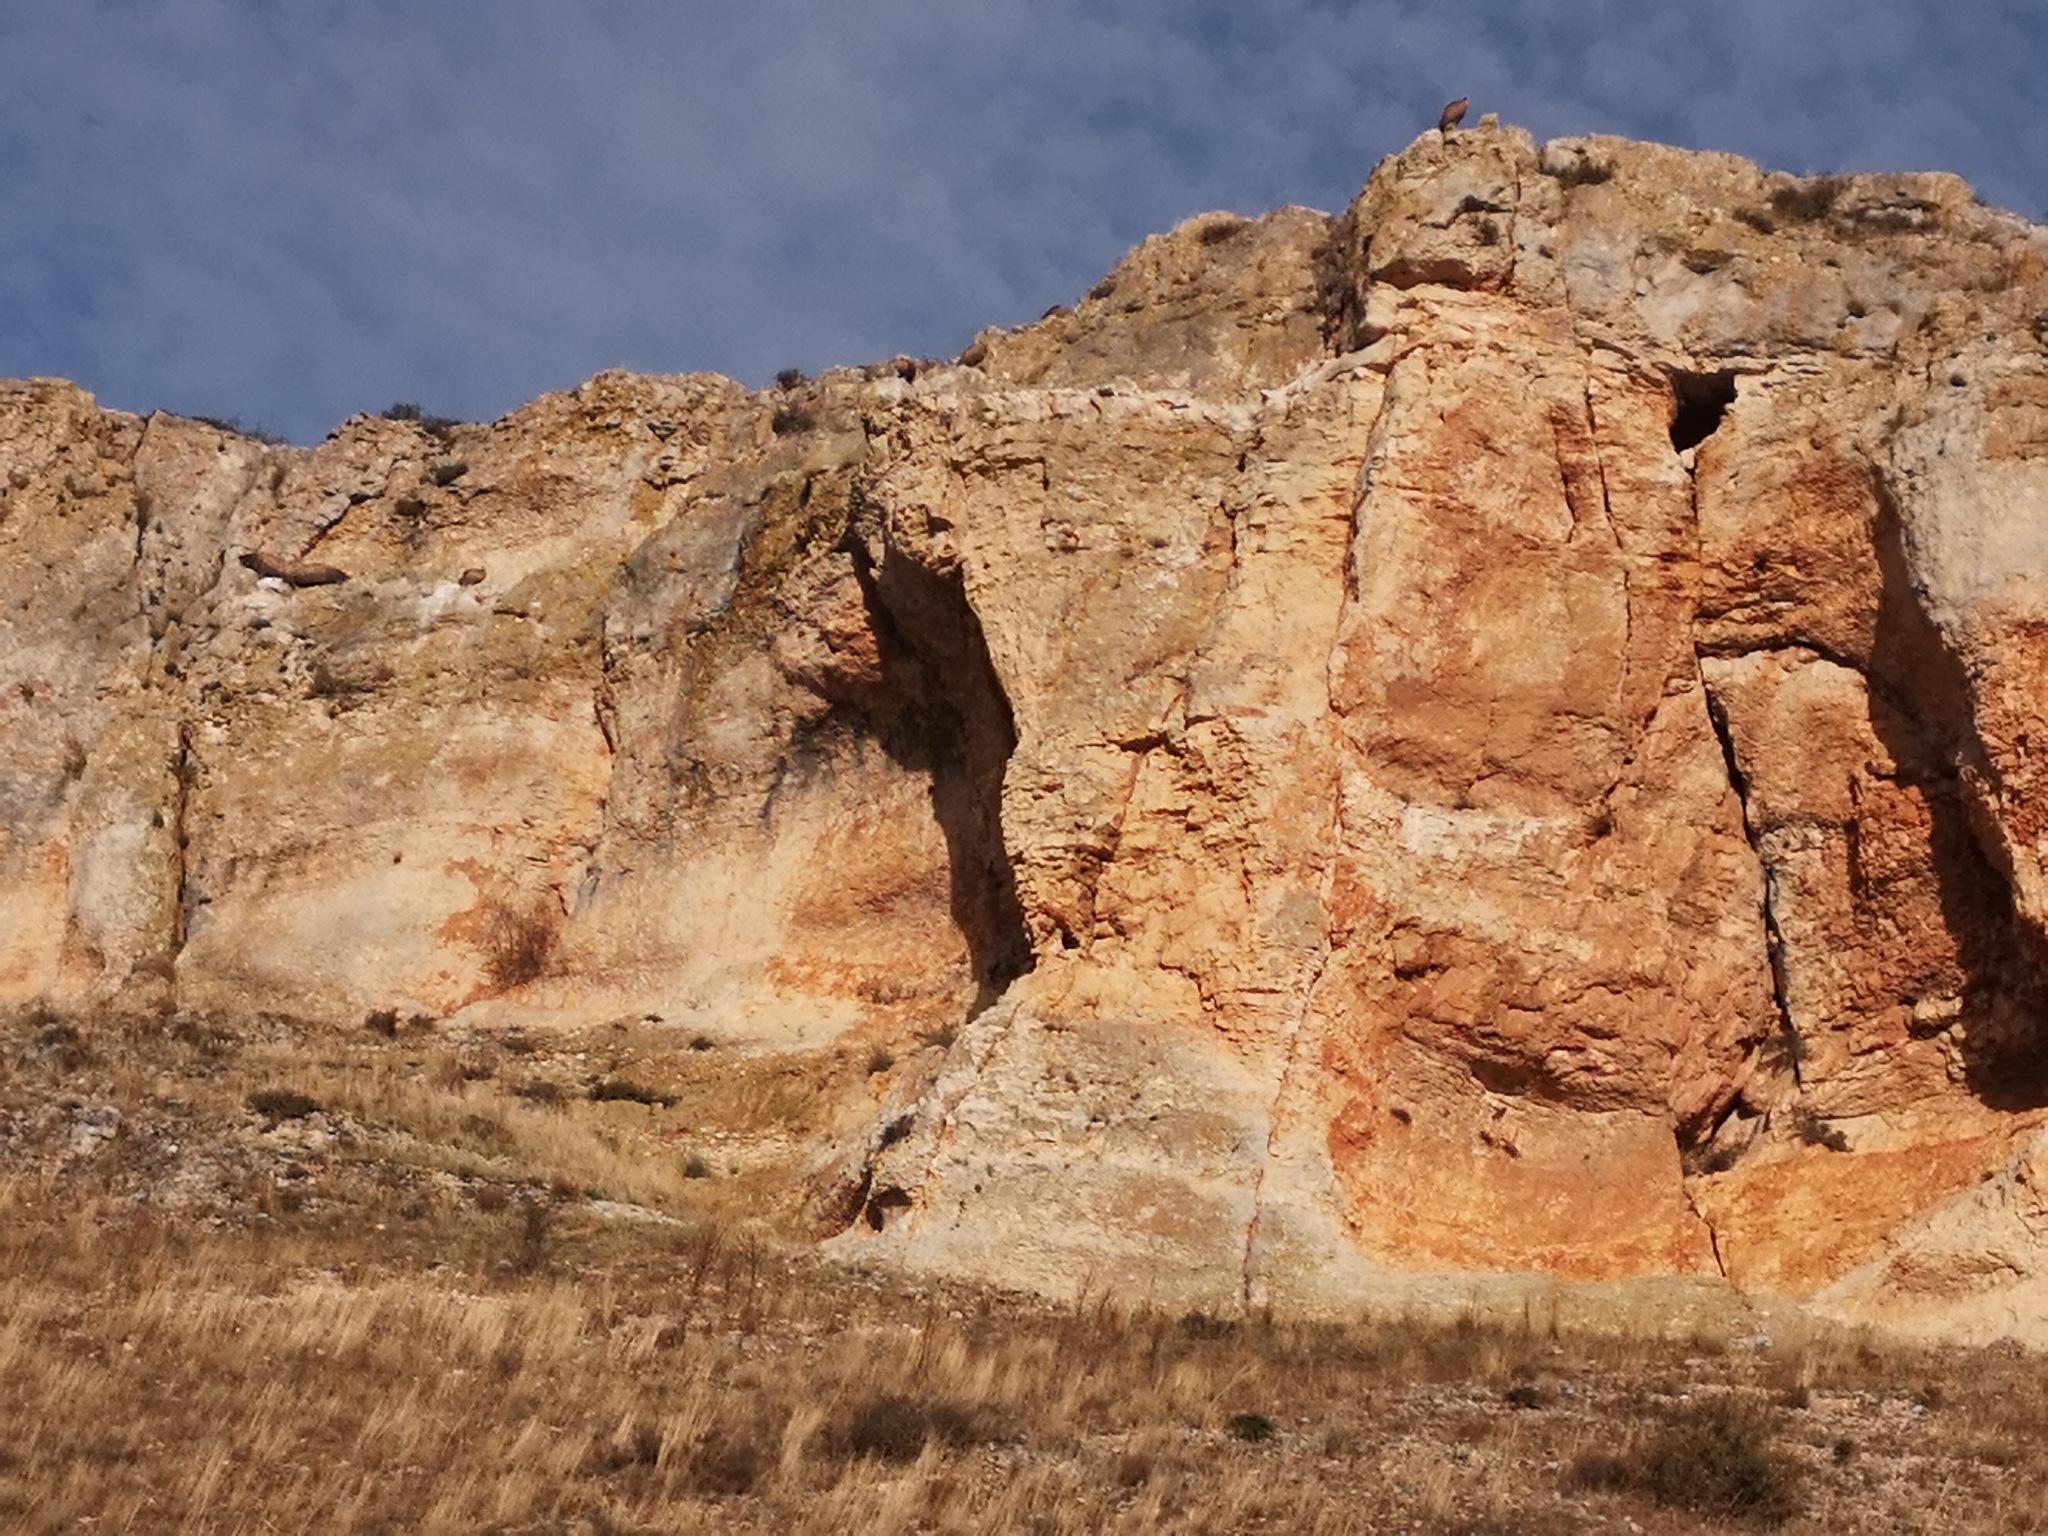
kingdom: Animalia
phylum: Chordata
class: Aves
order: Accipitriformes
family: Accipitridae
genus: Gyps
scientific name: Gyps fulvus
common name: Griffon vulture
